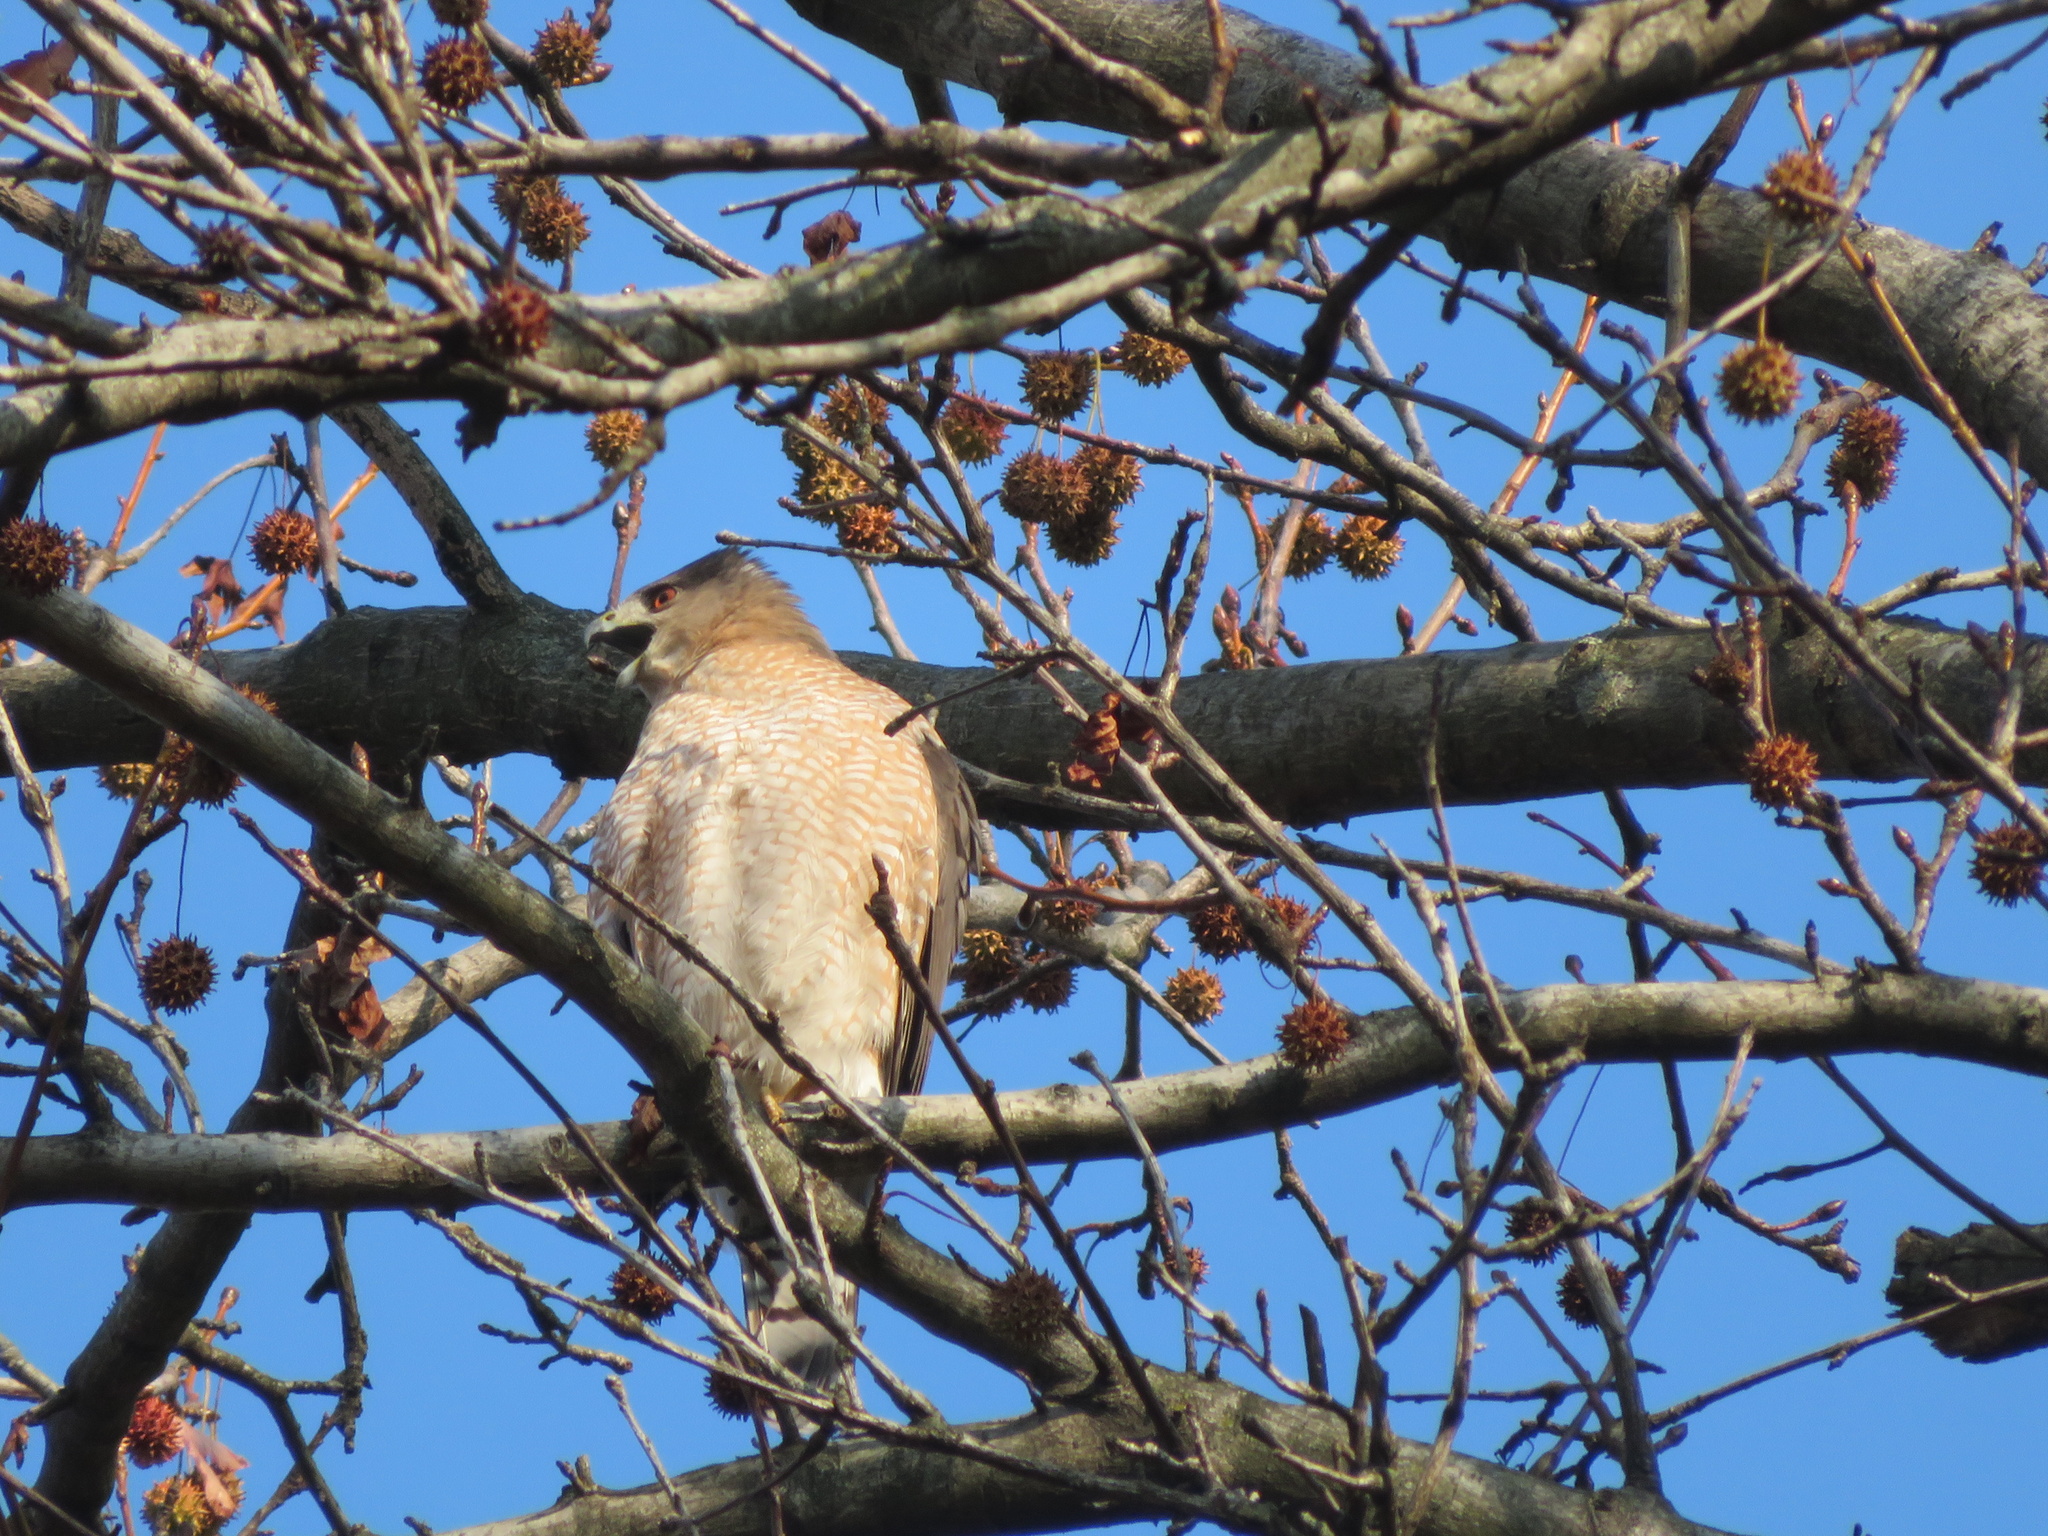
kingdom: Animalia
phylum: Chordata
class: Aves
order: Accipitriformes
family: Accipitridae
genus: Accipiter
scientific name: Accipiter cooperii
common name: Cooper's hawk
